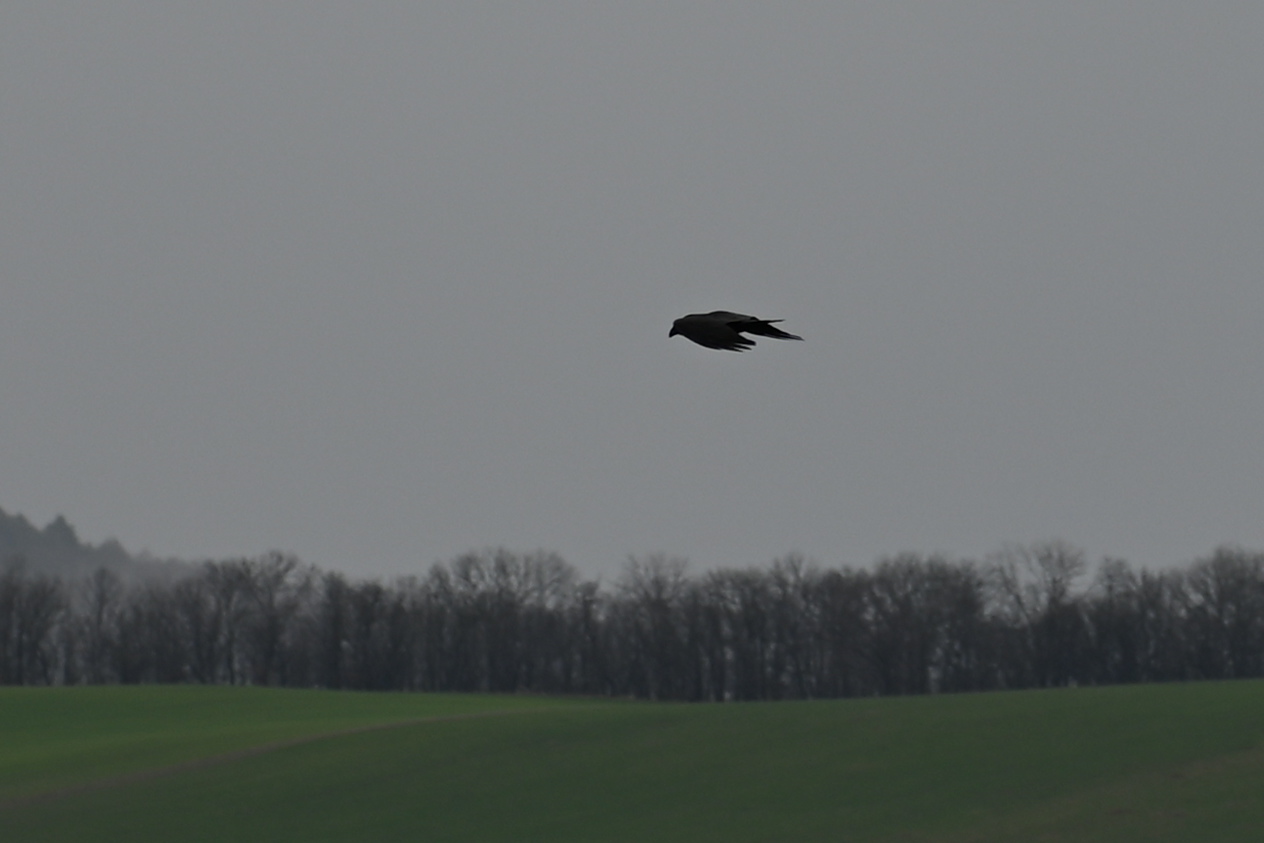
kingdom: Animalia
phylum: Chordata
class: Aves
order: Passeriformes
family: Corvidae
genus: Corvus
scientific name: Corvus corax
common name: Common raven
